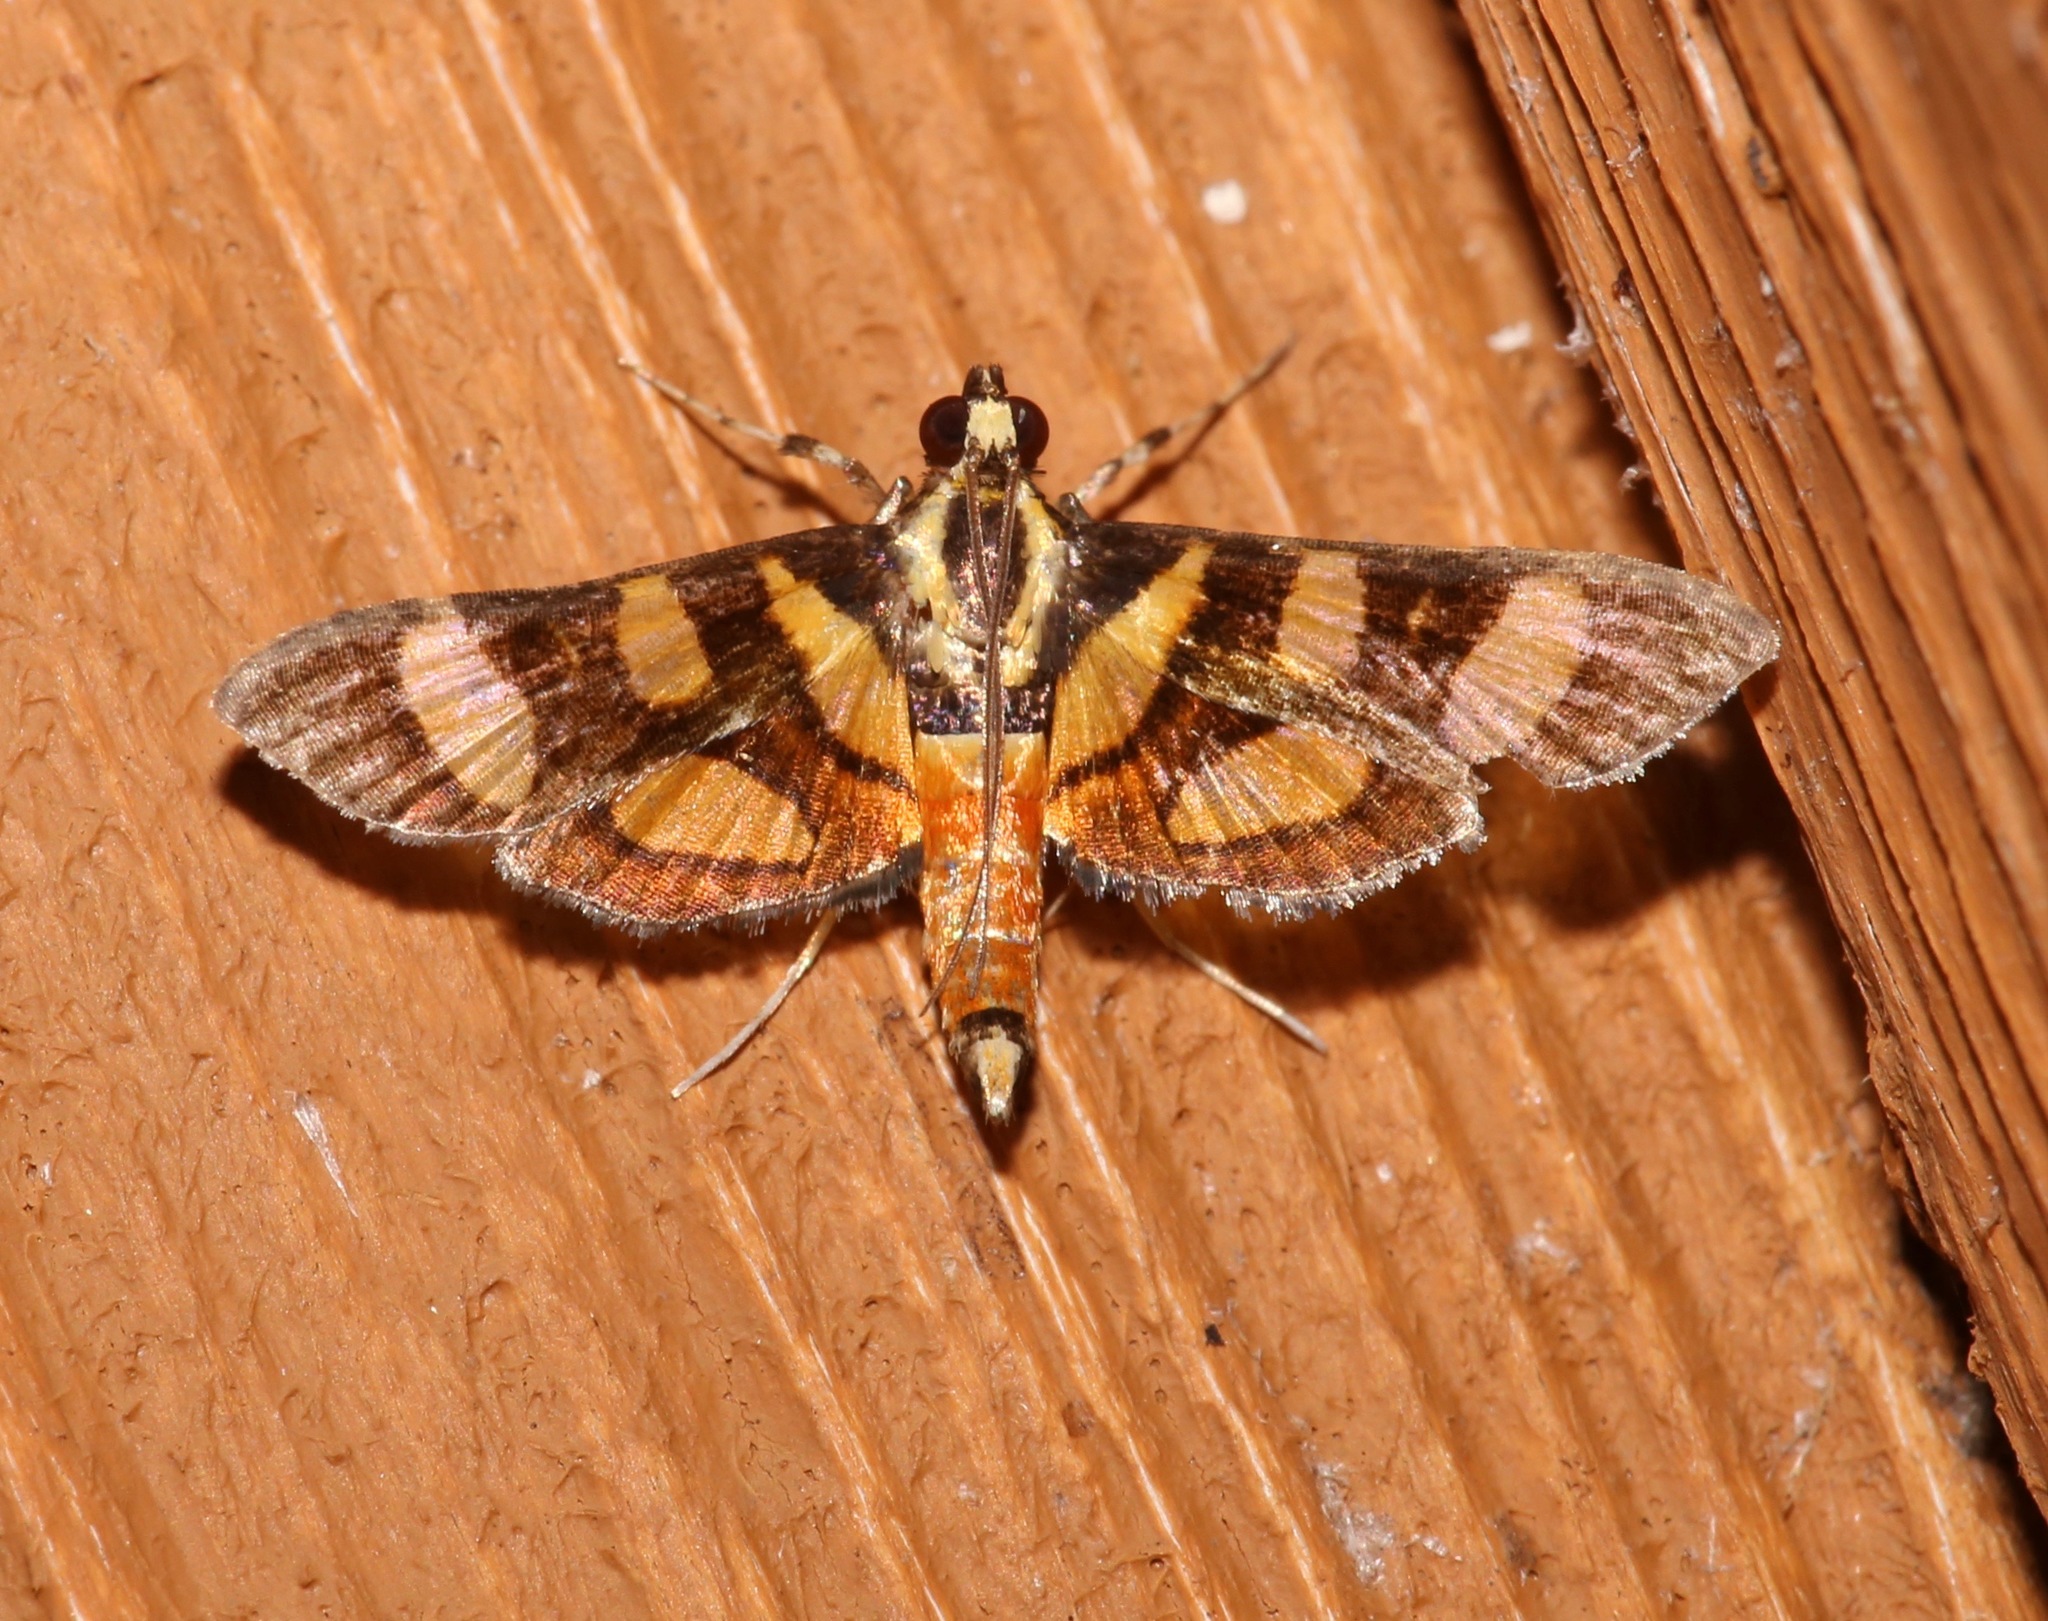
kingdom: Animalia
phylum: Arthropoda
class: Insecta
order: Lepidoptera
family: Crambidae
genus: Syngamia
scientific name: Syngamia florella
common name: Orange-spotted flower moth
